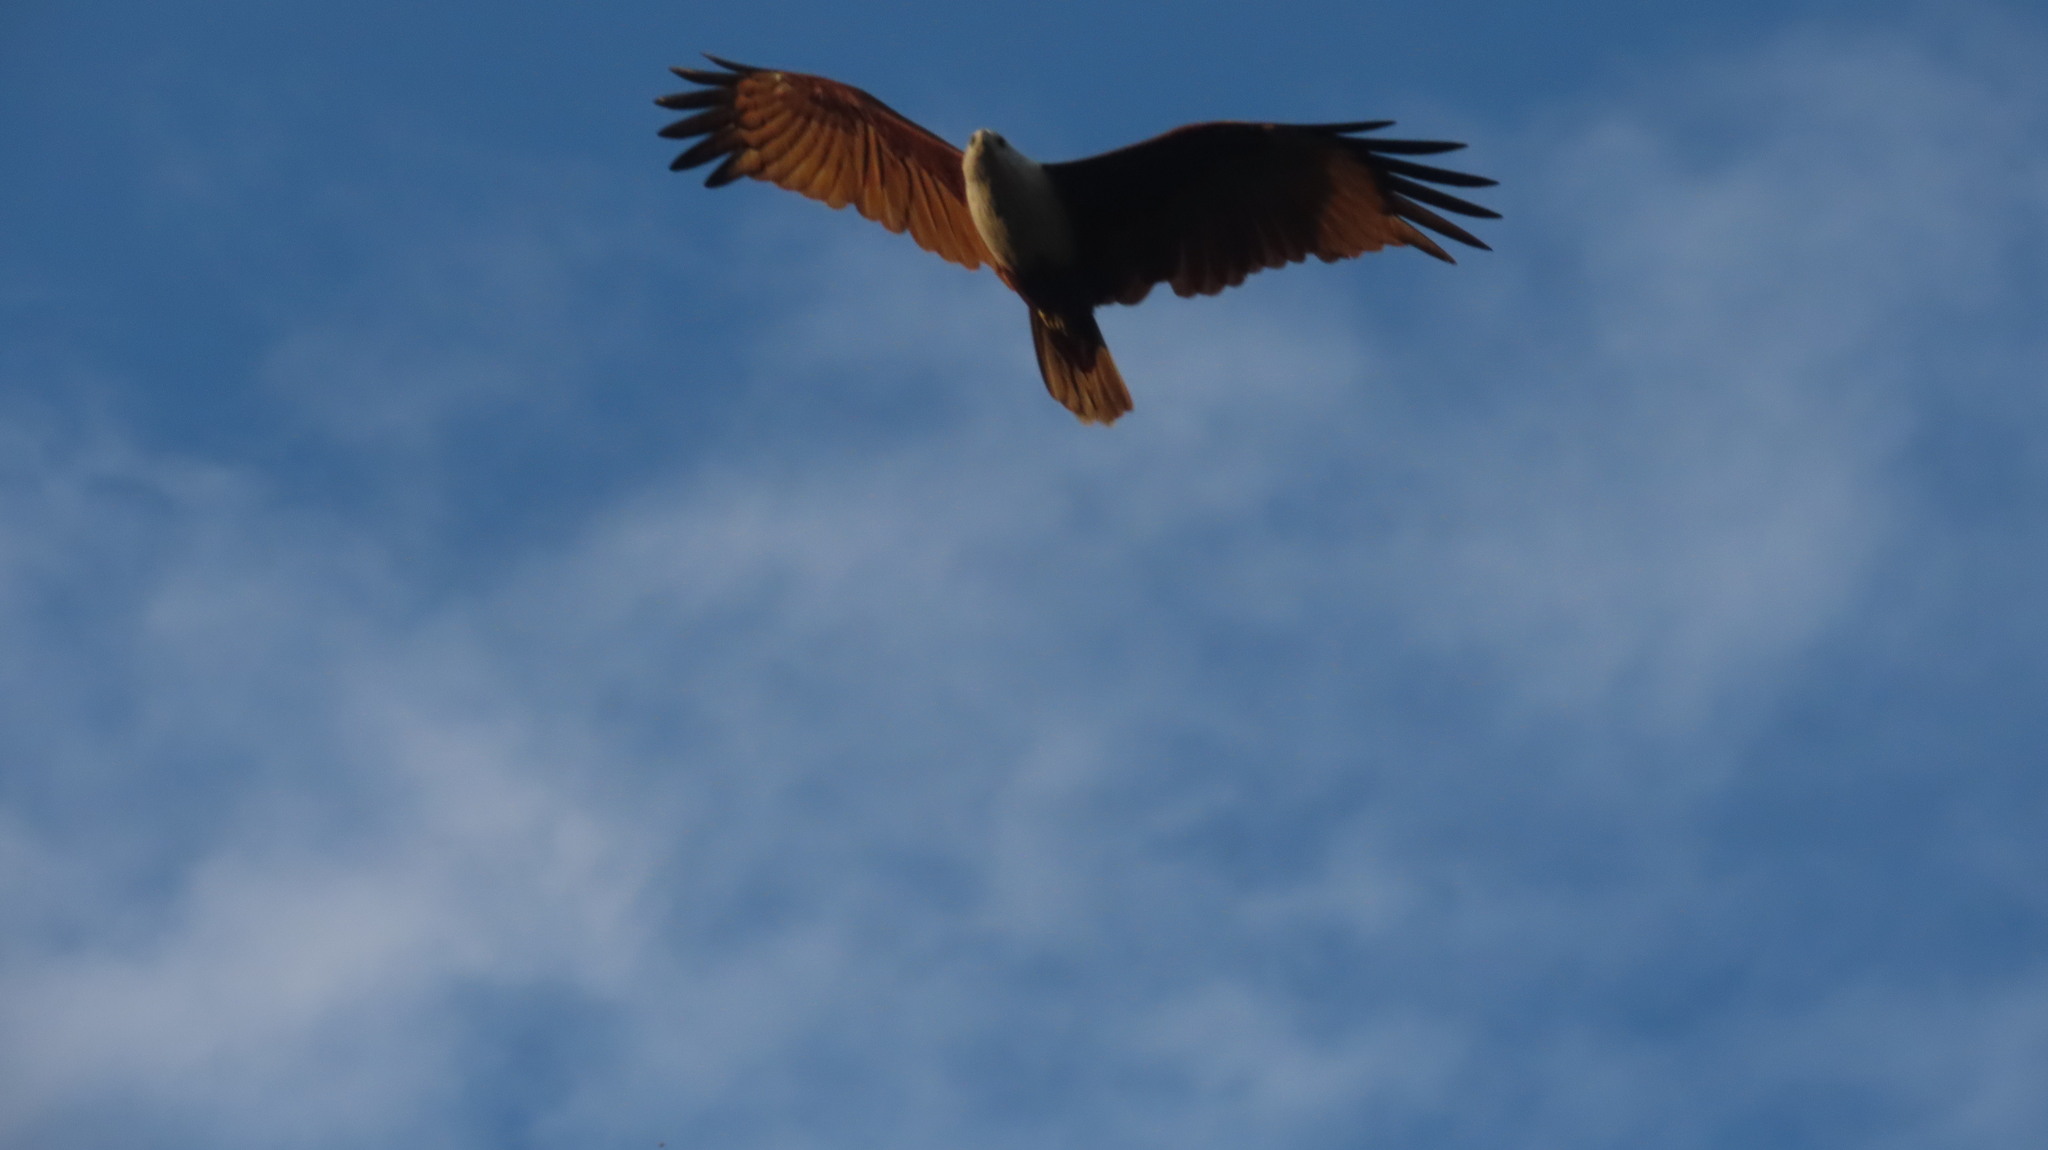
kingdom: Animalia
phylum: Chordata
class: Aves
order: Accipitriformes
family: Accipitridae
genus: Haliastur
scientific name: Haliastur indus
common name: Brahminy kite
